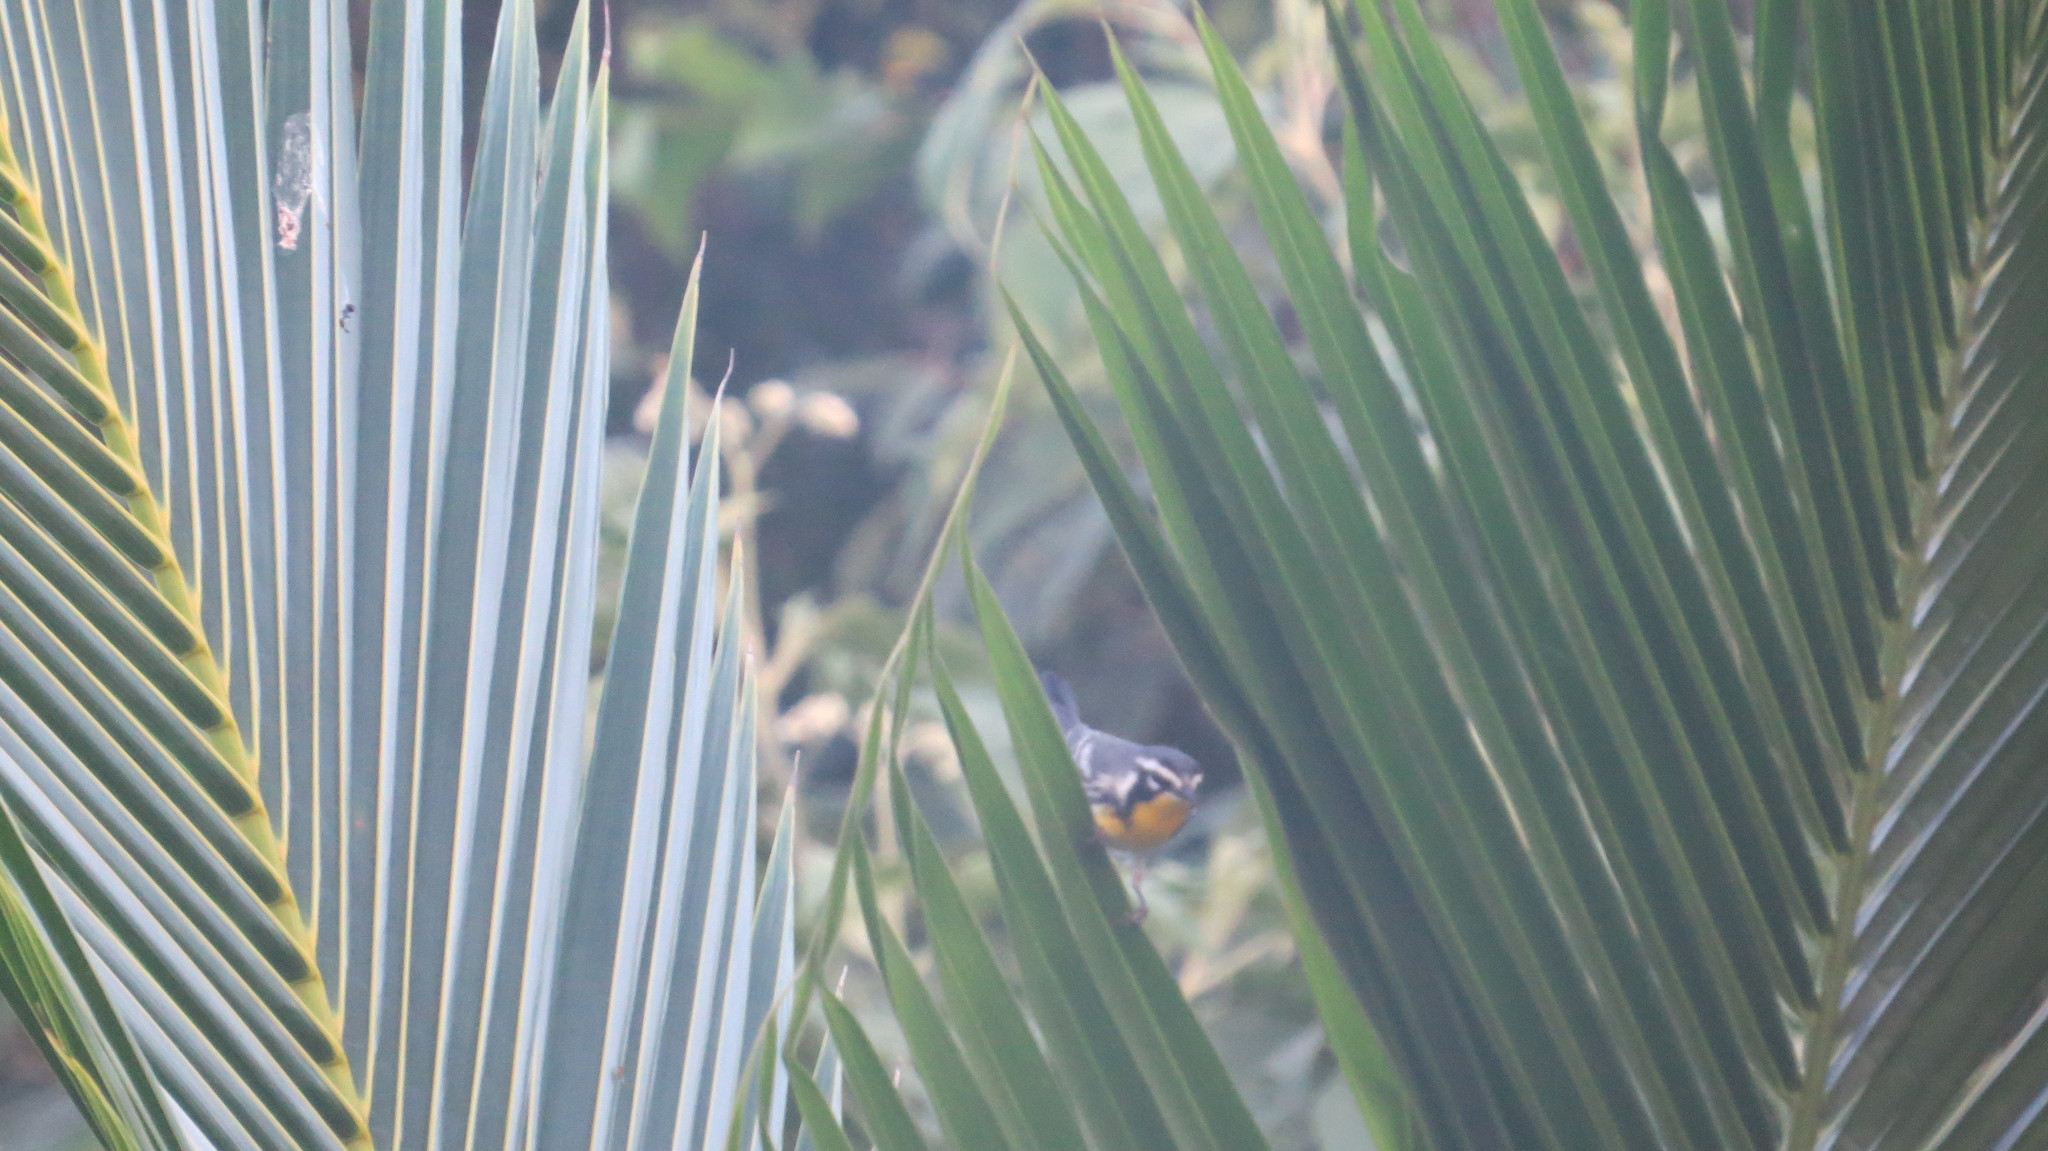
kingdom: Animalia
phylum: Chordata
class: Aves
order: Passeriformes
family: Parulidae
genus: Setophaga
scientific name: Setophaga dominica
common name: Yellow-throated warbler
